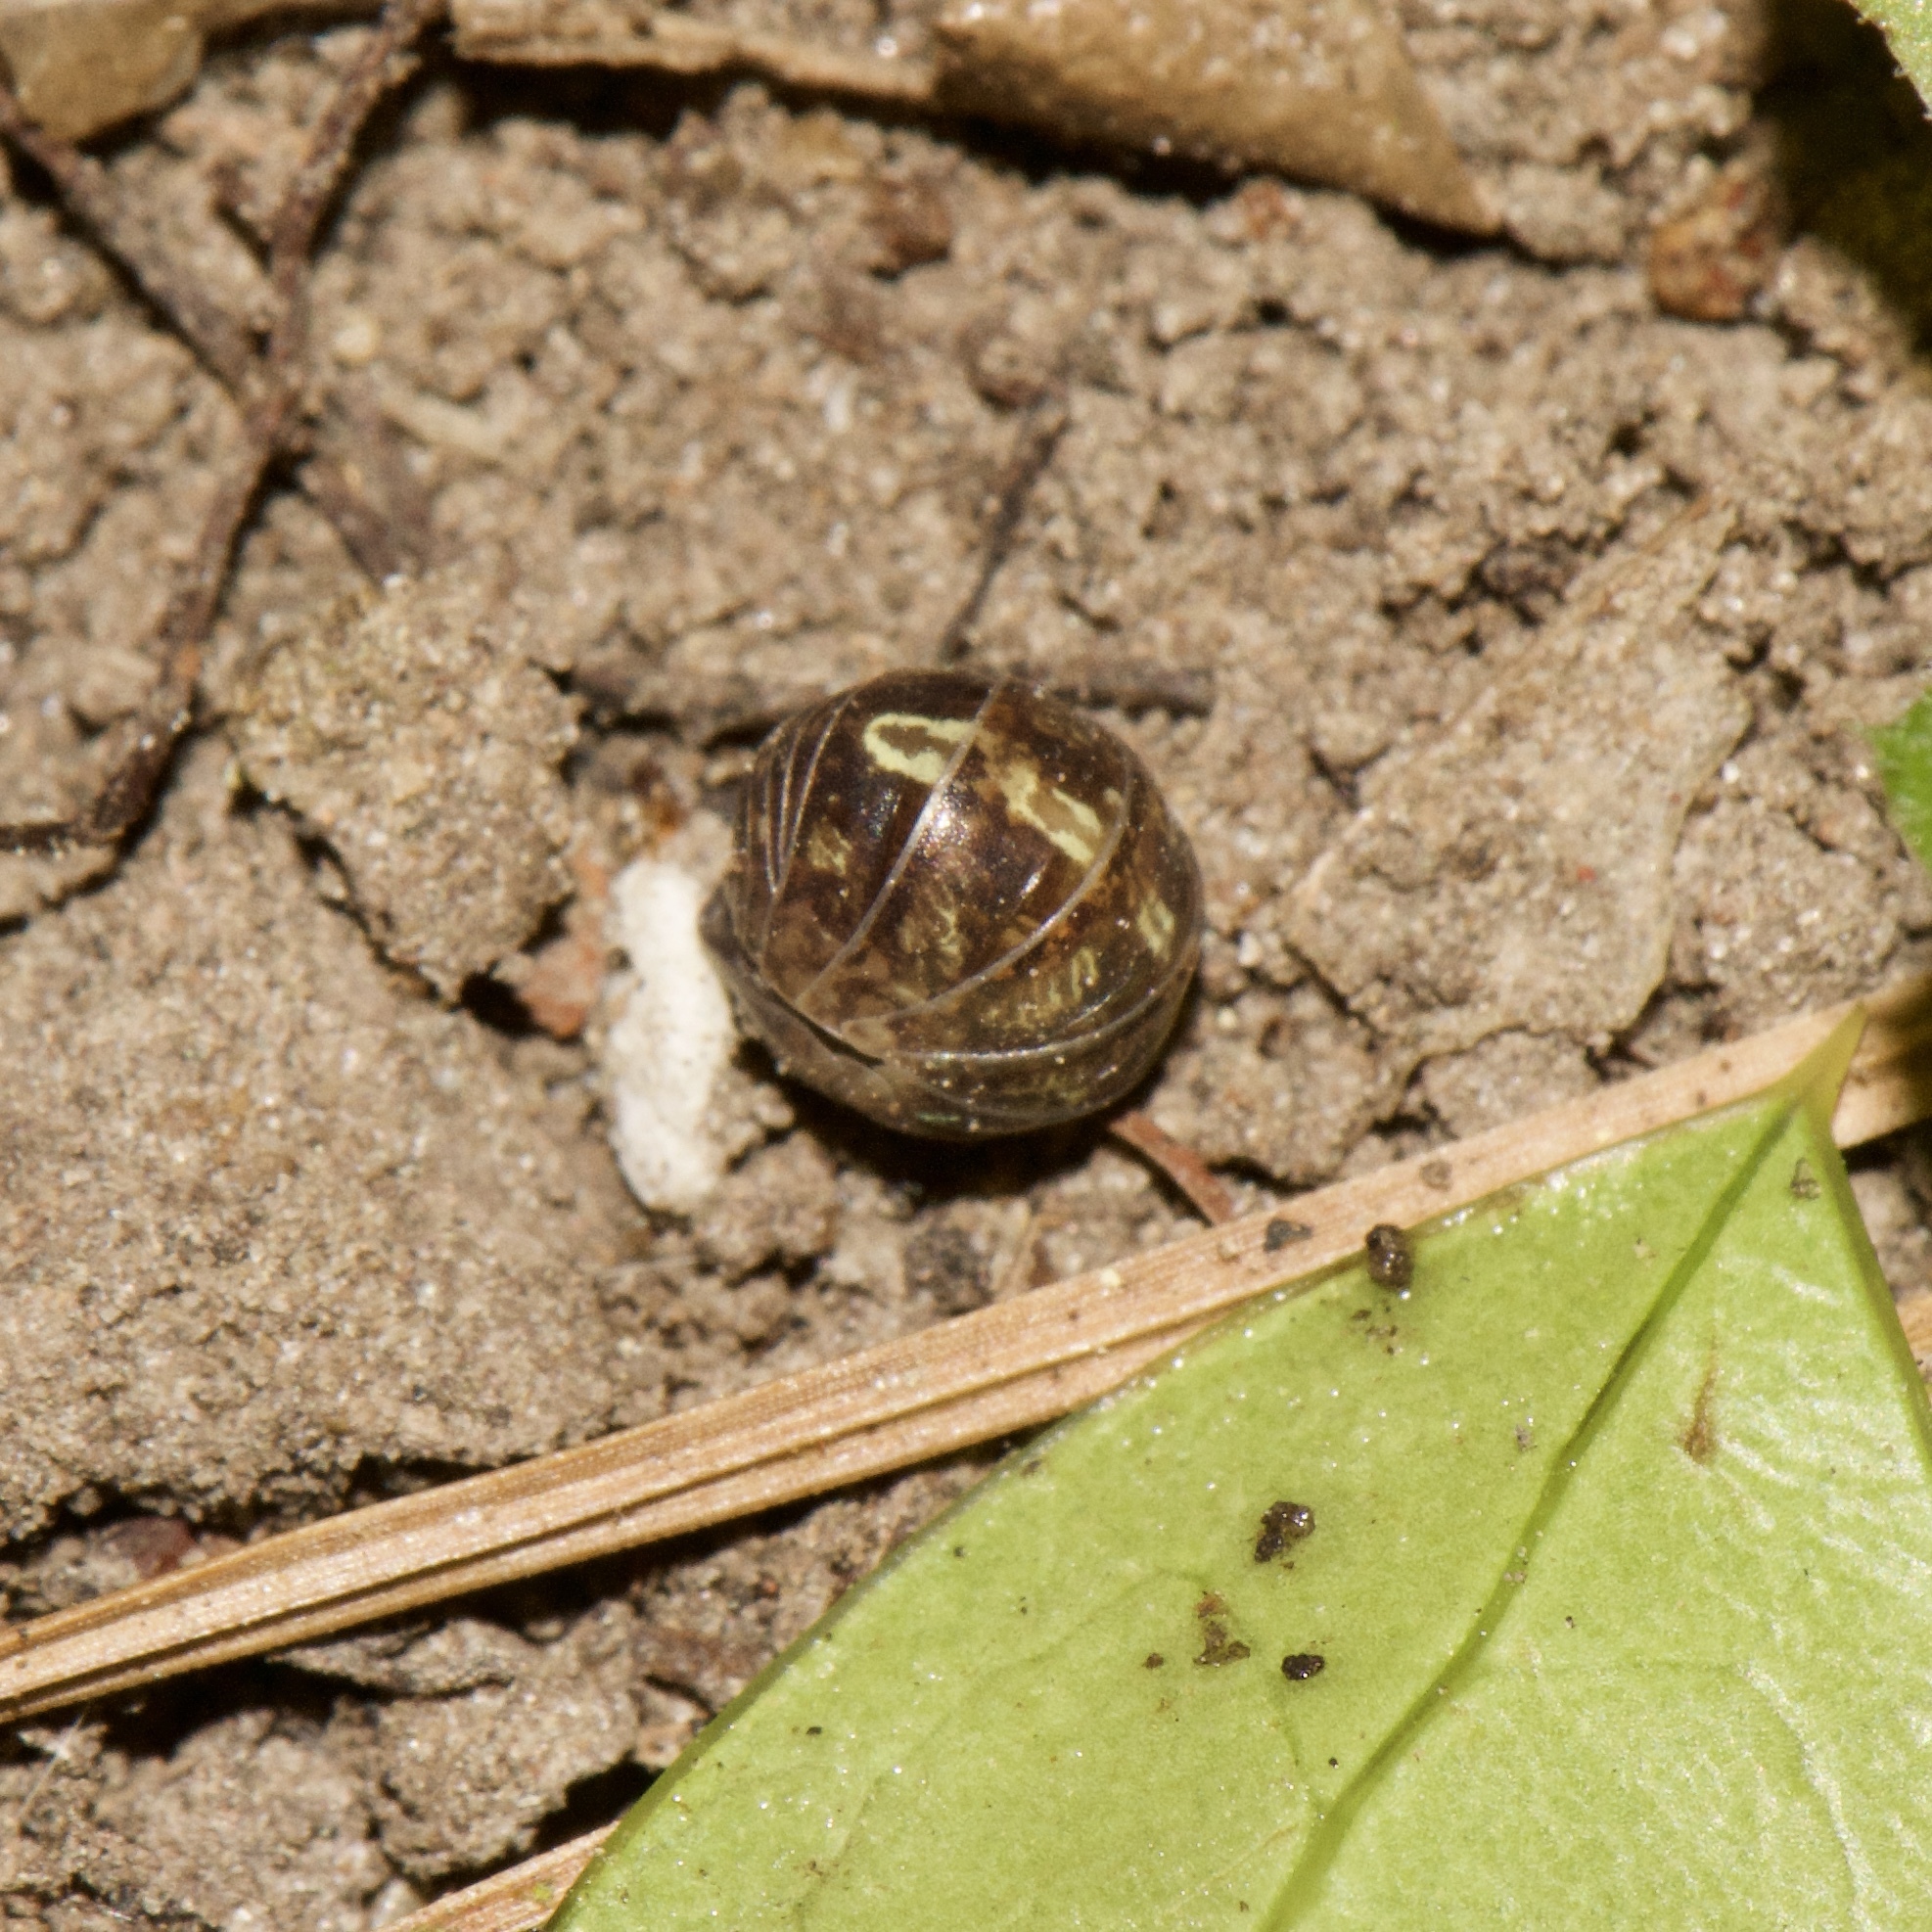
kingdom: Animalia
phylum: Arthropoda
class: Malacostraca
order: Isopoda
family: Armadillidiidae
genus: Armadillidium
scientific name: Armadillidium vulgare
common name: Common pill woodlouse
